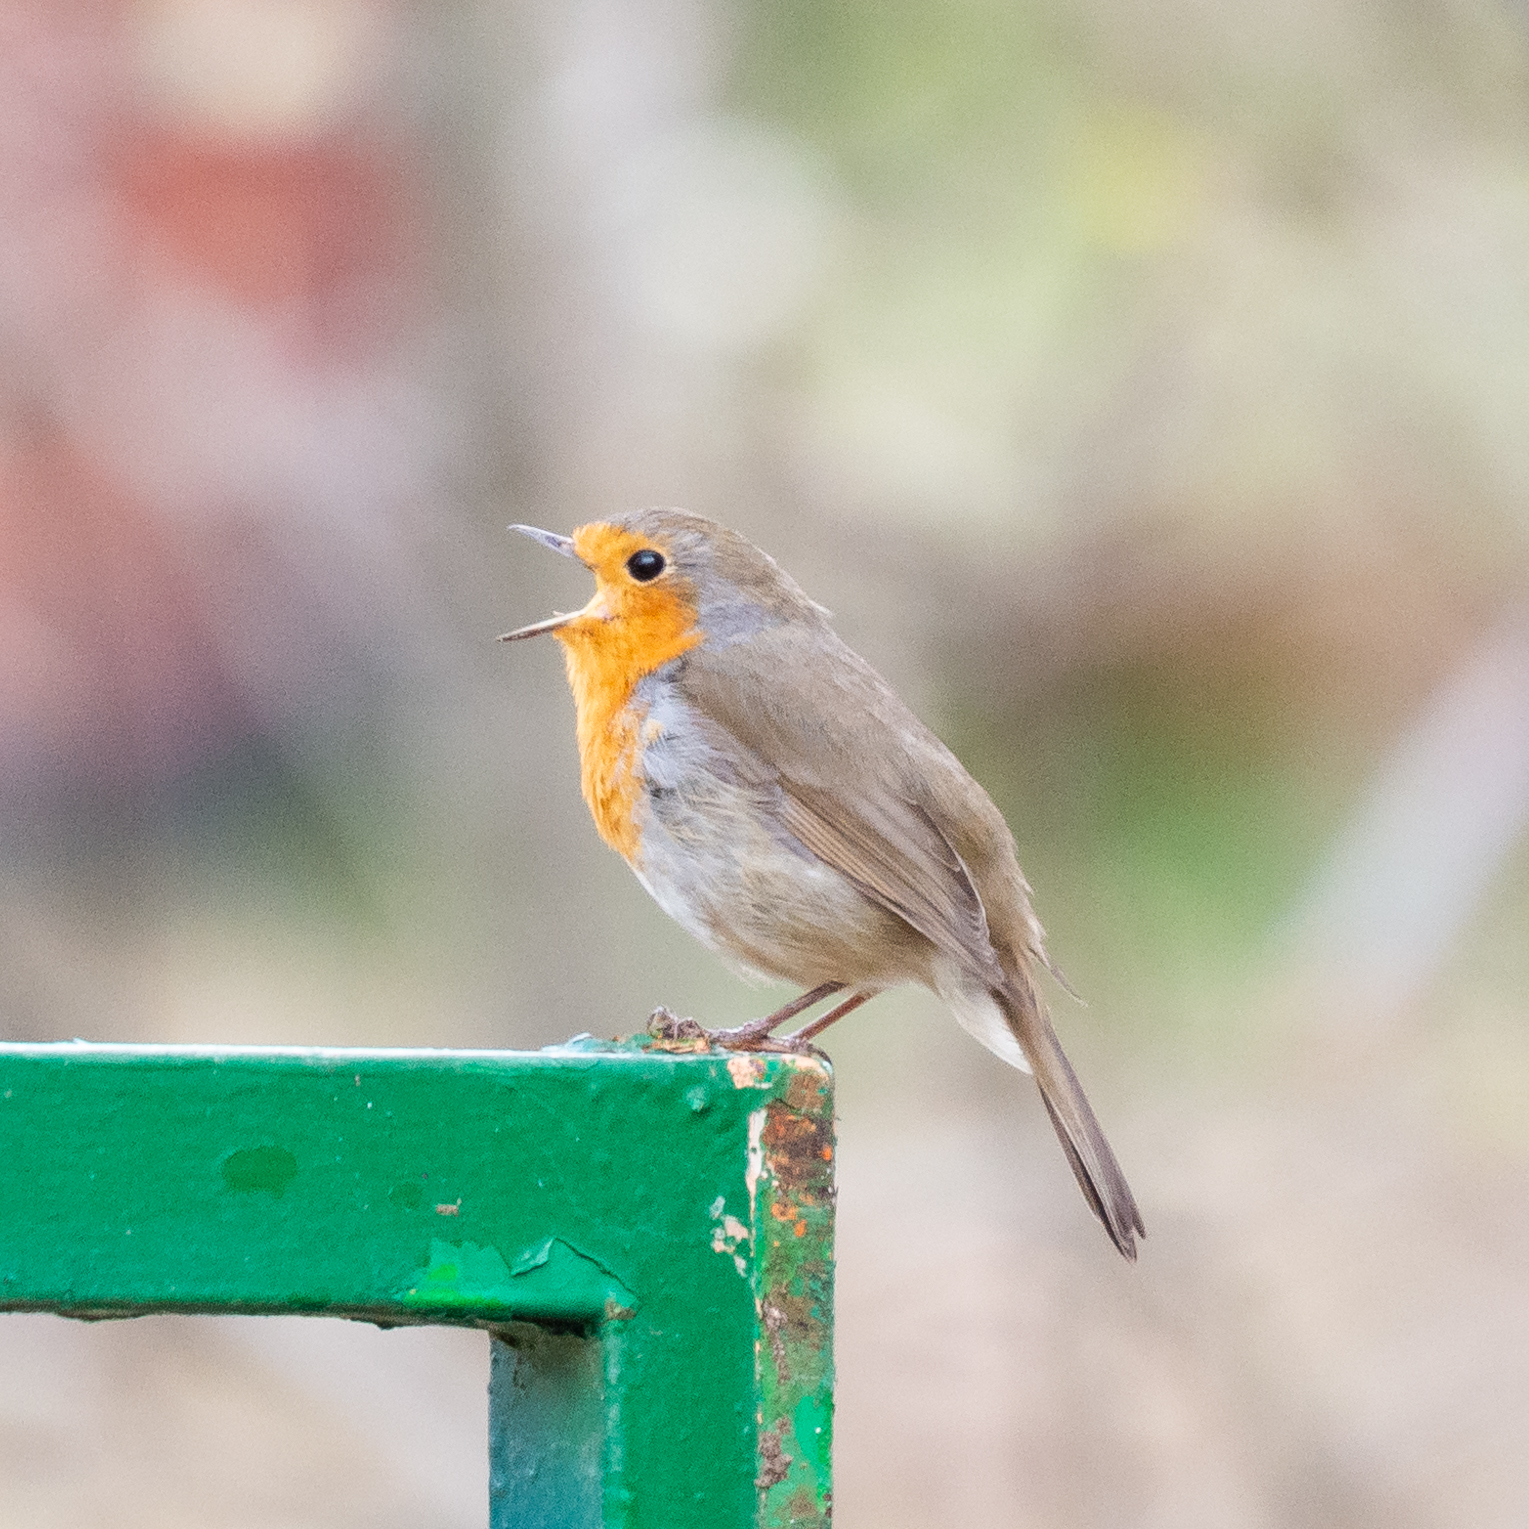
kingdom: Animalia
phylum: Chordata
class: Aves
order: Passeriformes
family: Muscicapidae
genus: Erithacus
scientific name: Erithacus rubecula
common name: European robin
